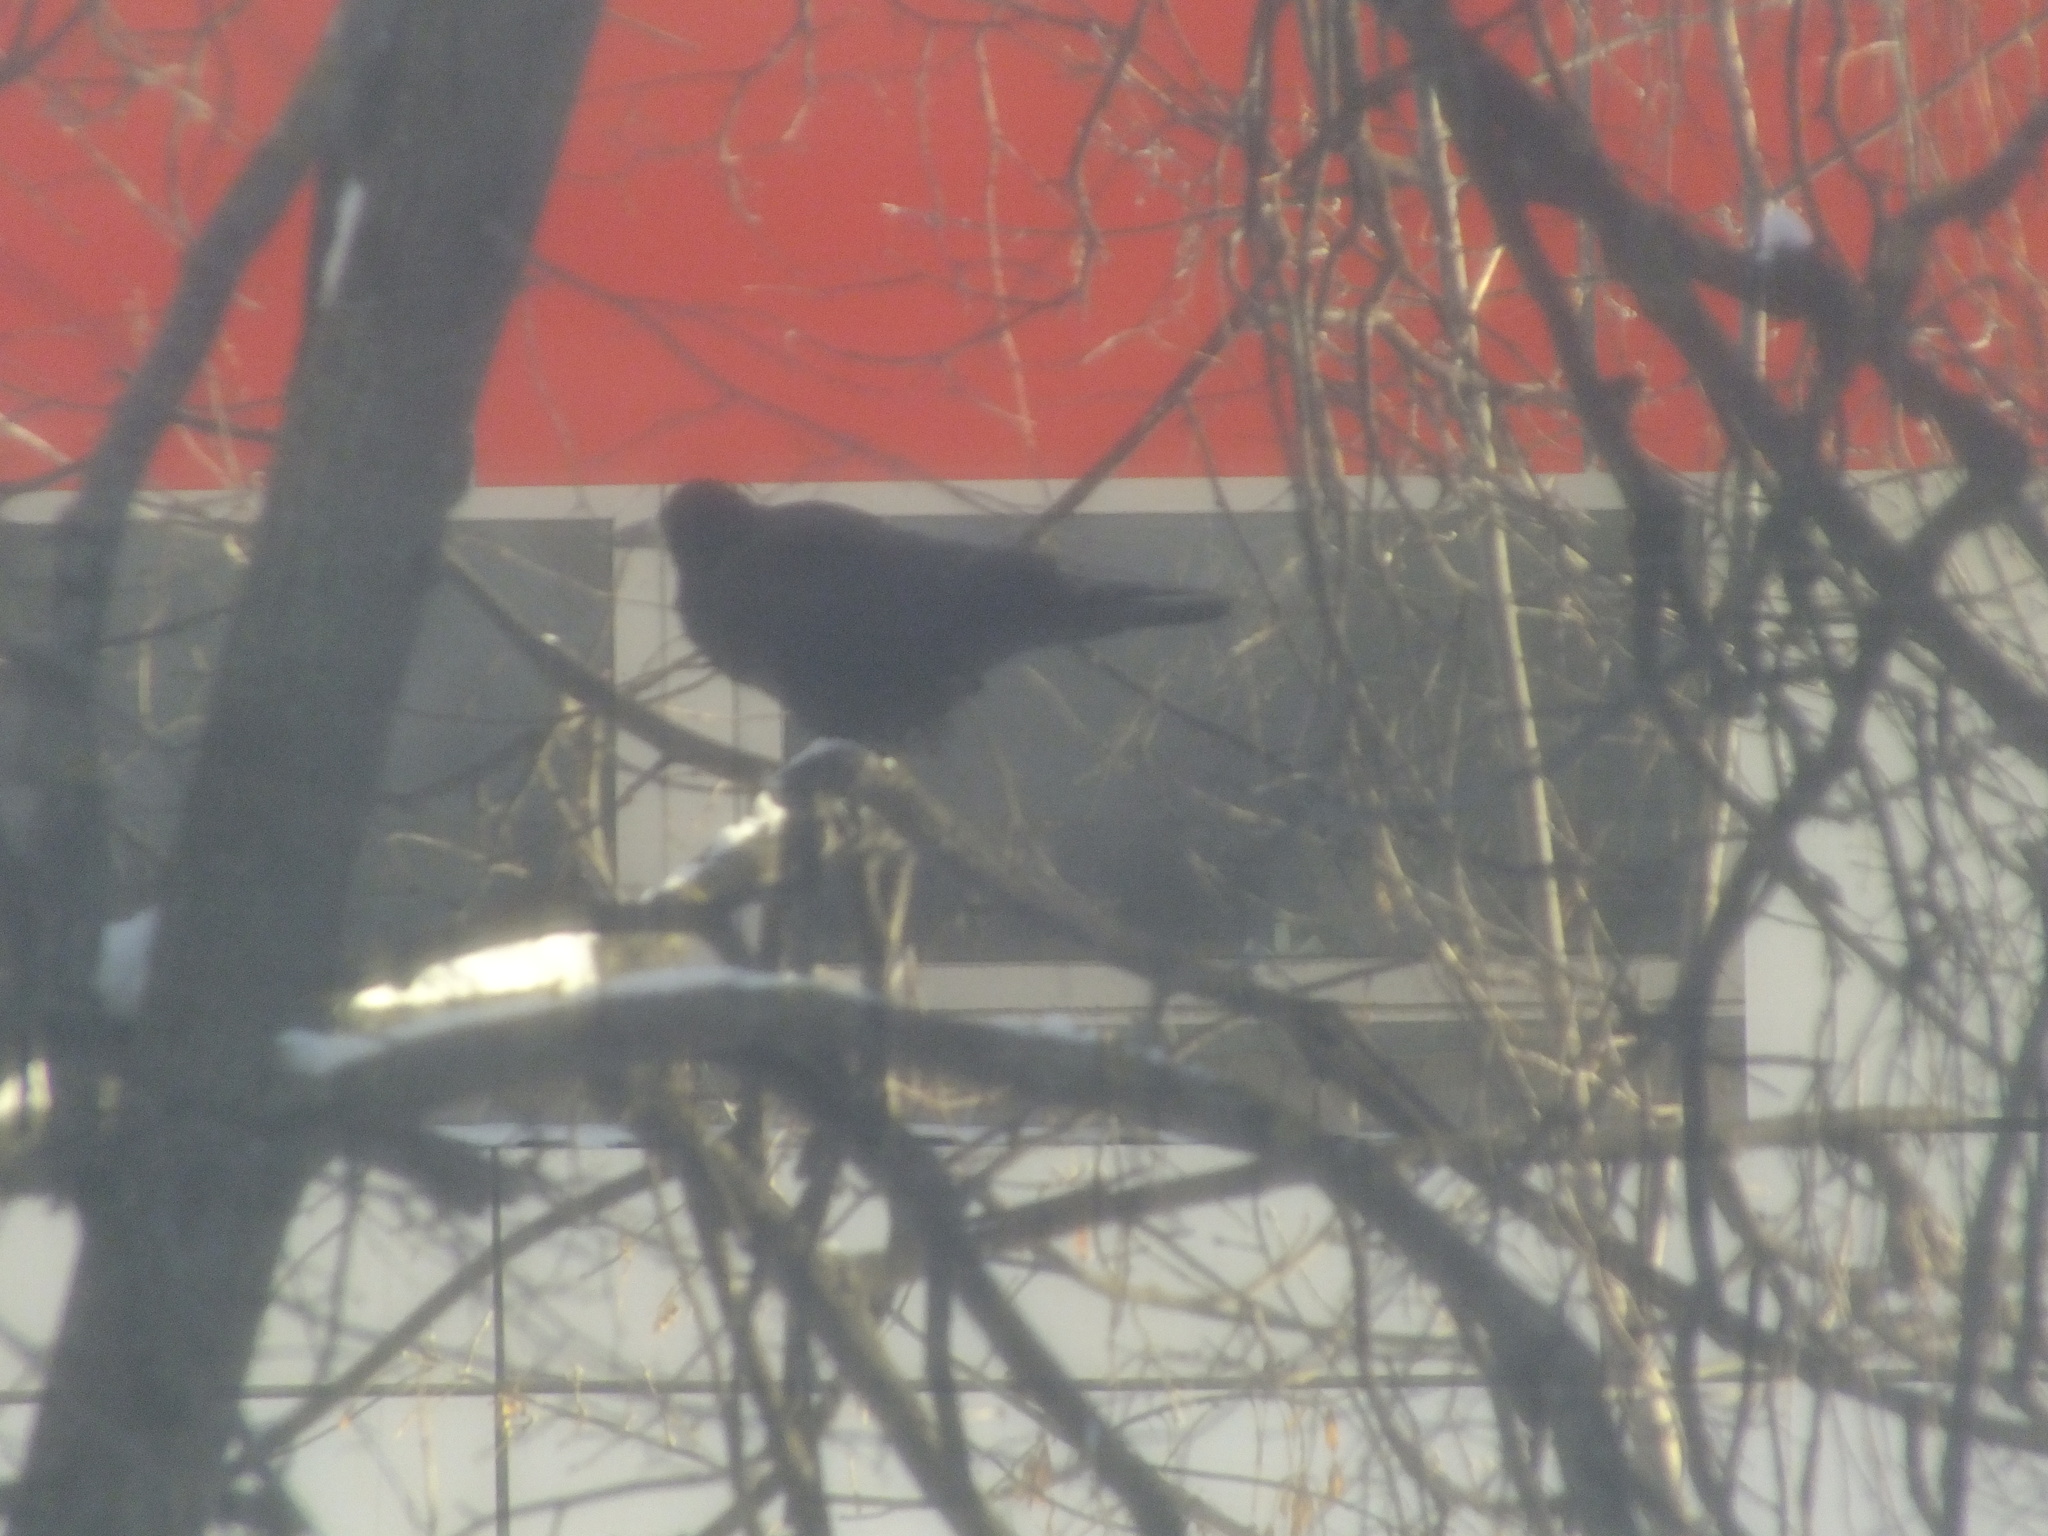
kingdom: Animalia
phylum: Chordata
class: Aves
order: Passeriformes
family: Corvidae
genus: Corvus
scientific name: Corvus frugilegus
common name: Rook
